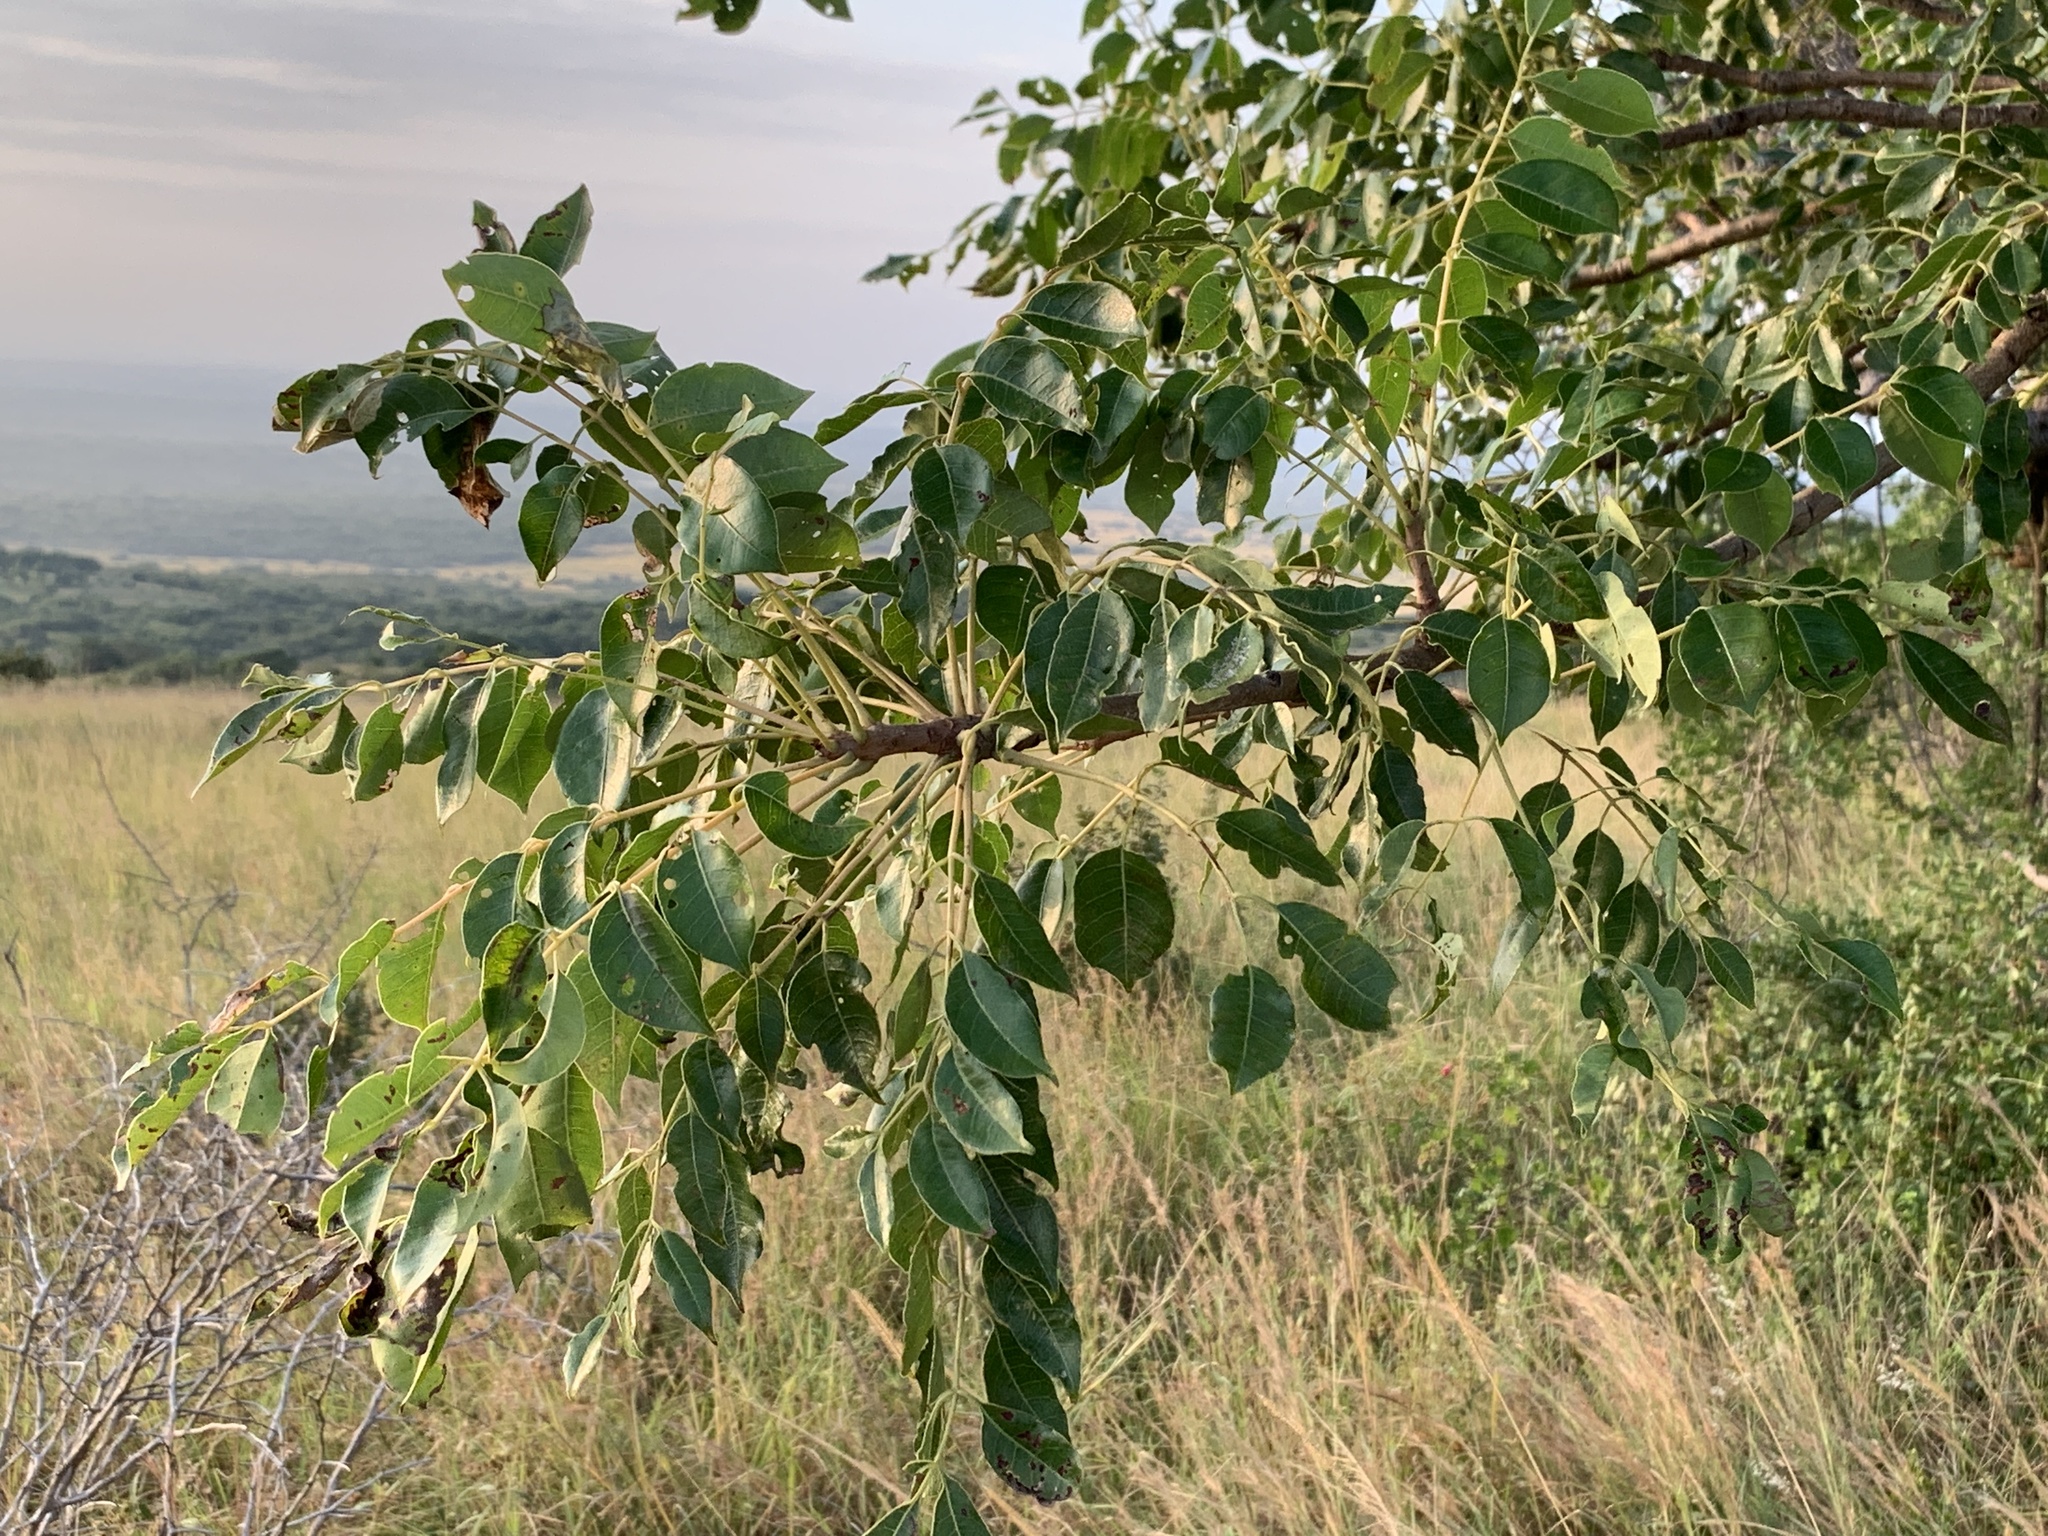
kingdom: Plantae
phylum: Tracheophyta
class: Magnoliopsida
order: Sapindales
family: Anacardiaceae
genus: Sclerocarya
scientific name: Sclerocarya birrea
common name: Marula
